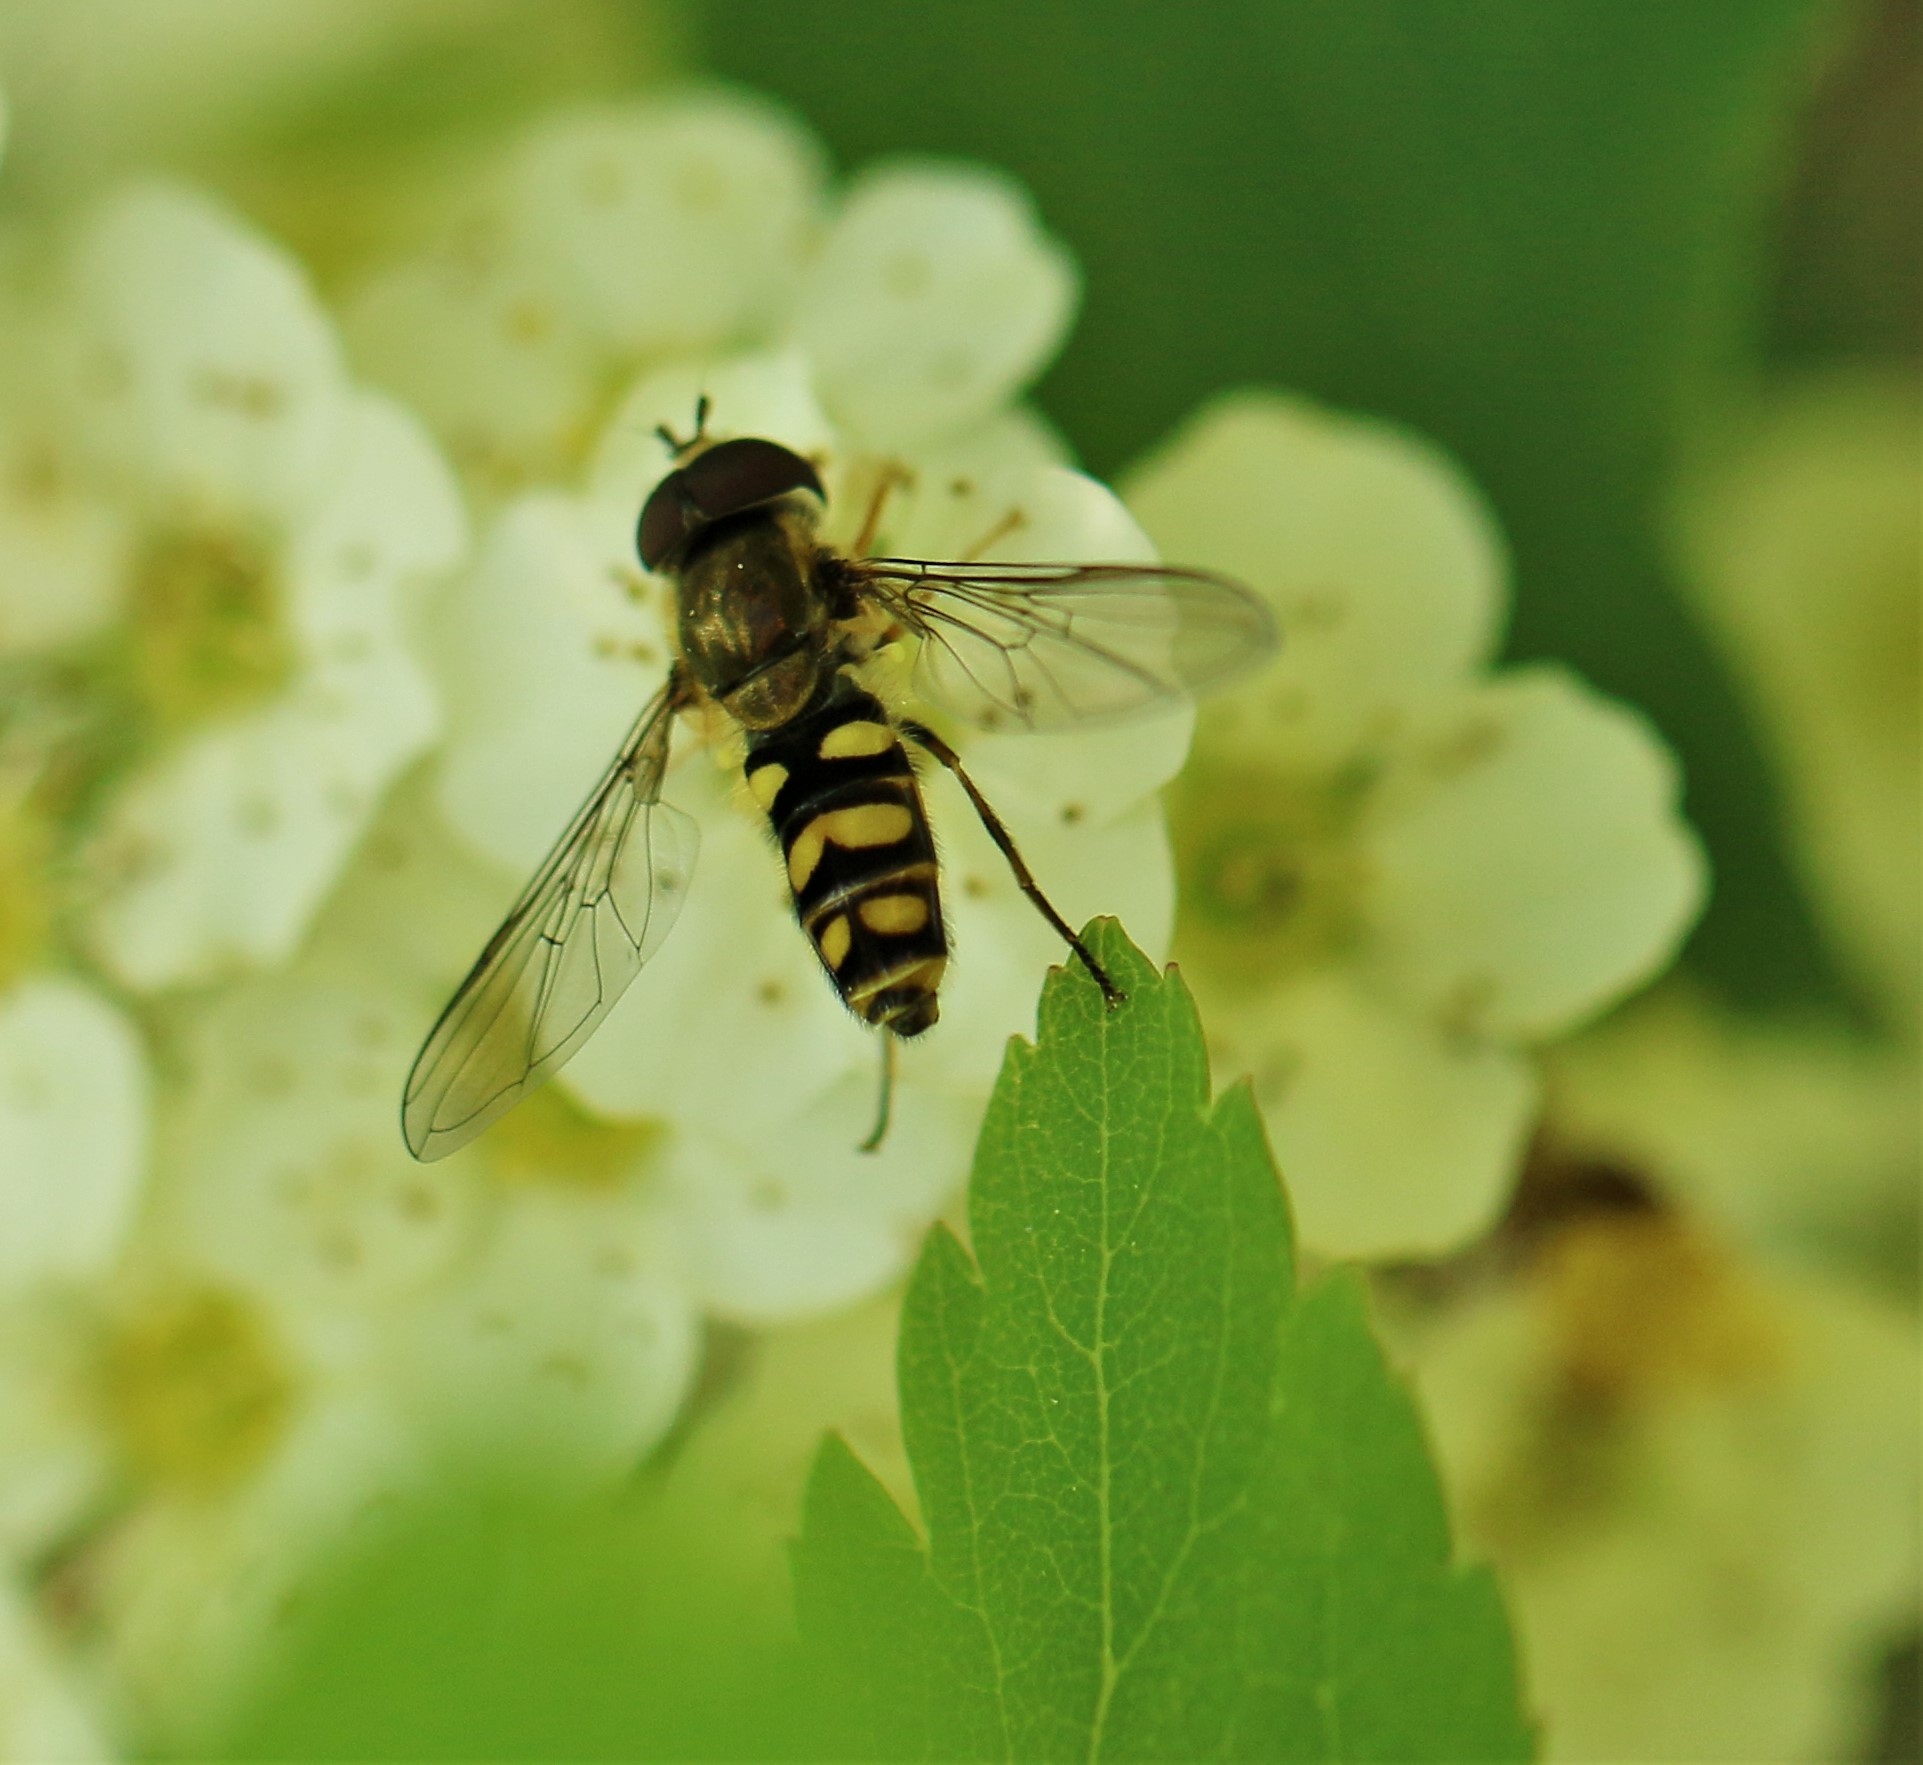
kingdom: Animalia
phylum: Arthropoda
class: Insecta
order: Diptera
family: Syrphidae
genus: Epistrophella
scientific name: Epistrophella emarginata
